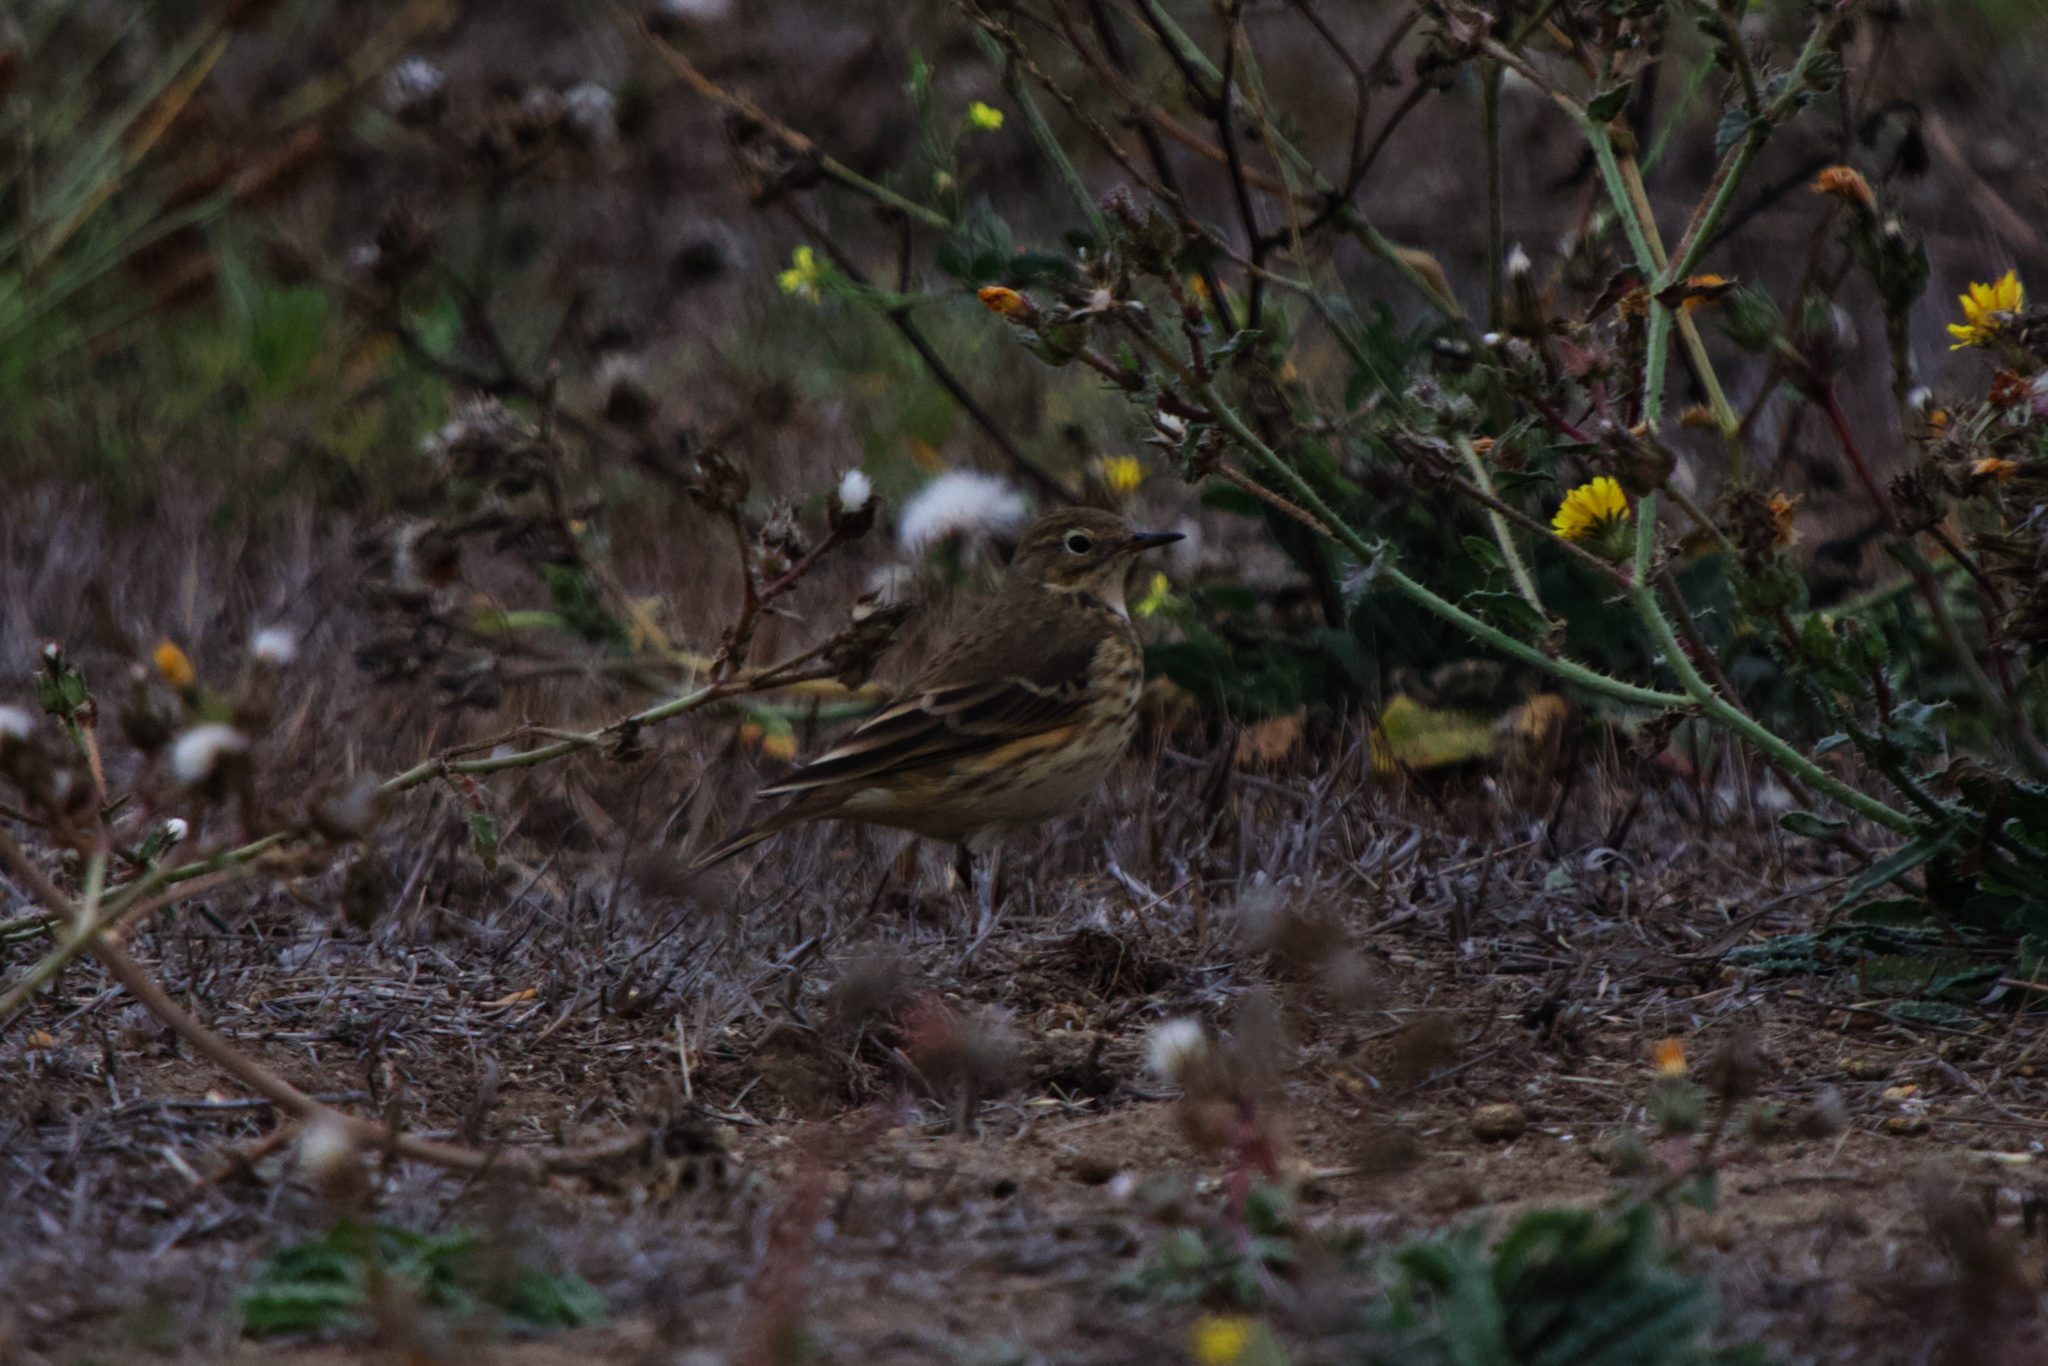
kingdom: Animalia
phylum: Chordata
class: Aves
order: Passeriformes
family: Motacillidae
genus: Anthus
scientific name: Anthus rubescens
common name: Buff-bellied pipit
